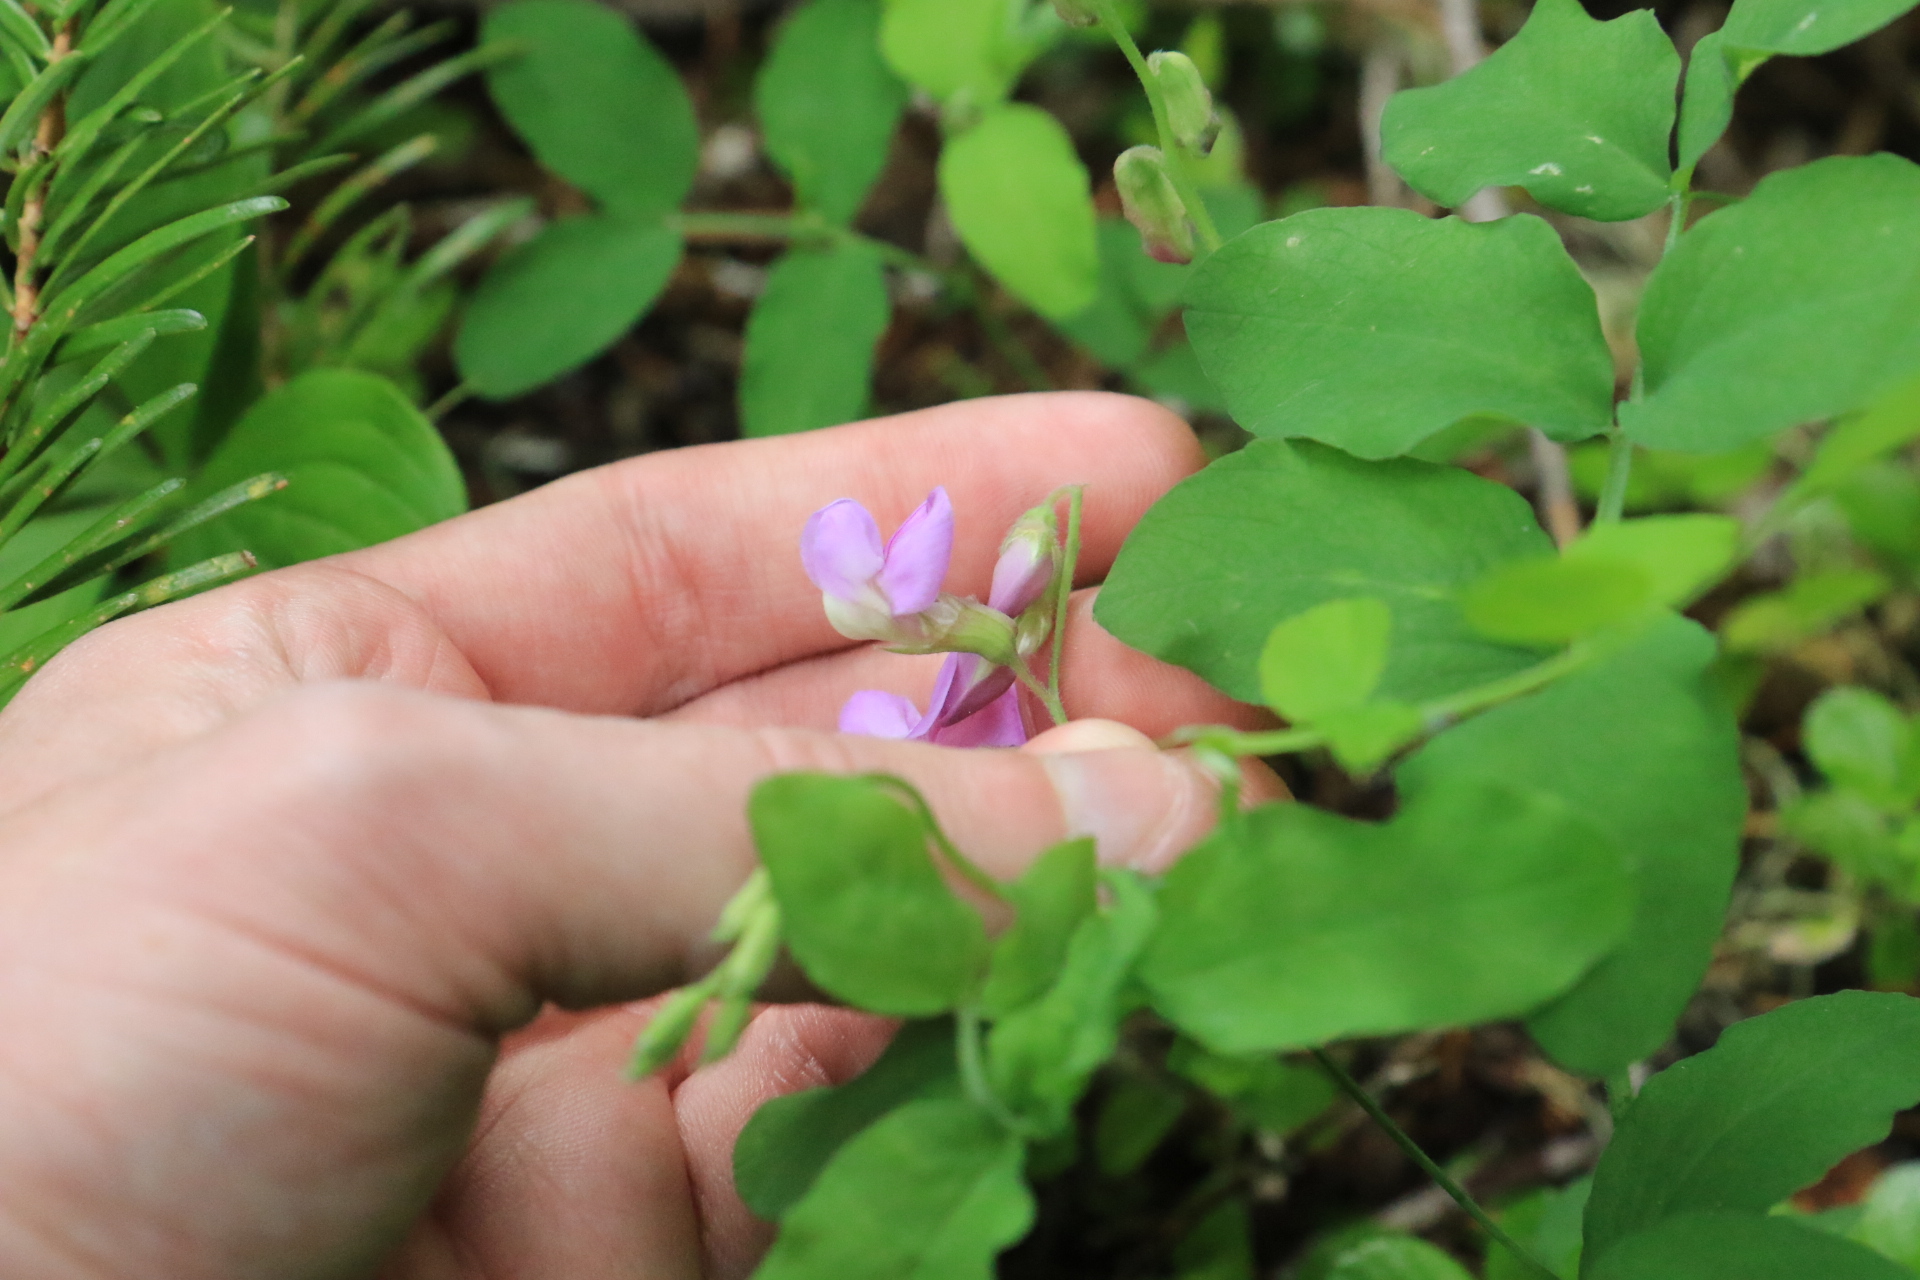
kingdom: Plantae
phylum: Tracheophyta
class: Magnoliopsida
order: Fabales
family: Fabaceae
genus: Lathyrus
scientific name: Lathyrus nevadensis
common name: Sierra nevada peavine
